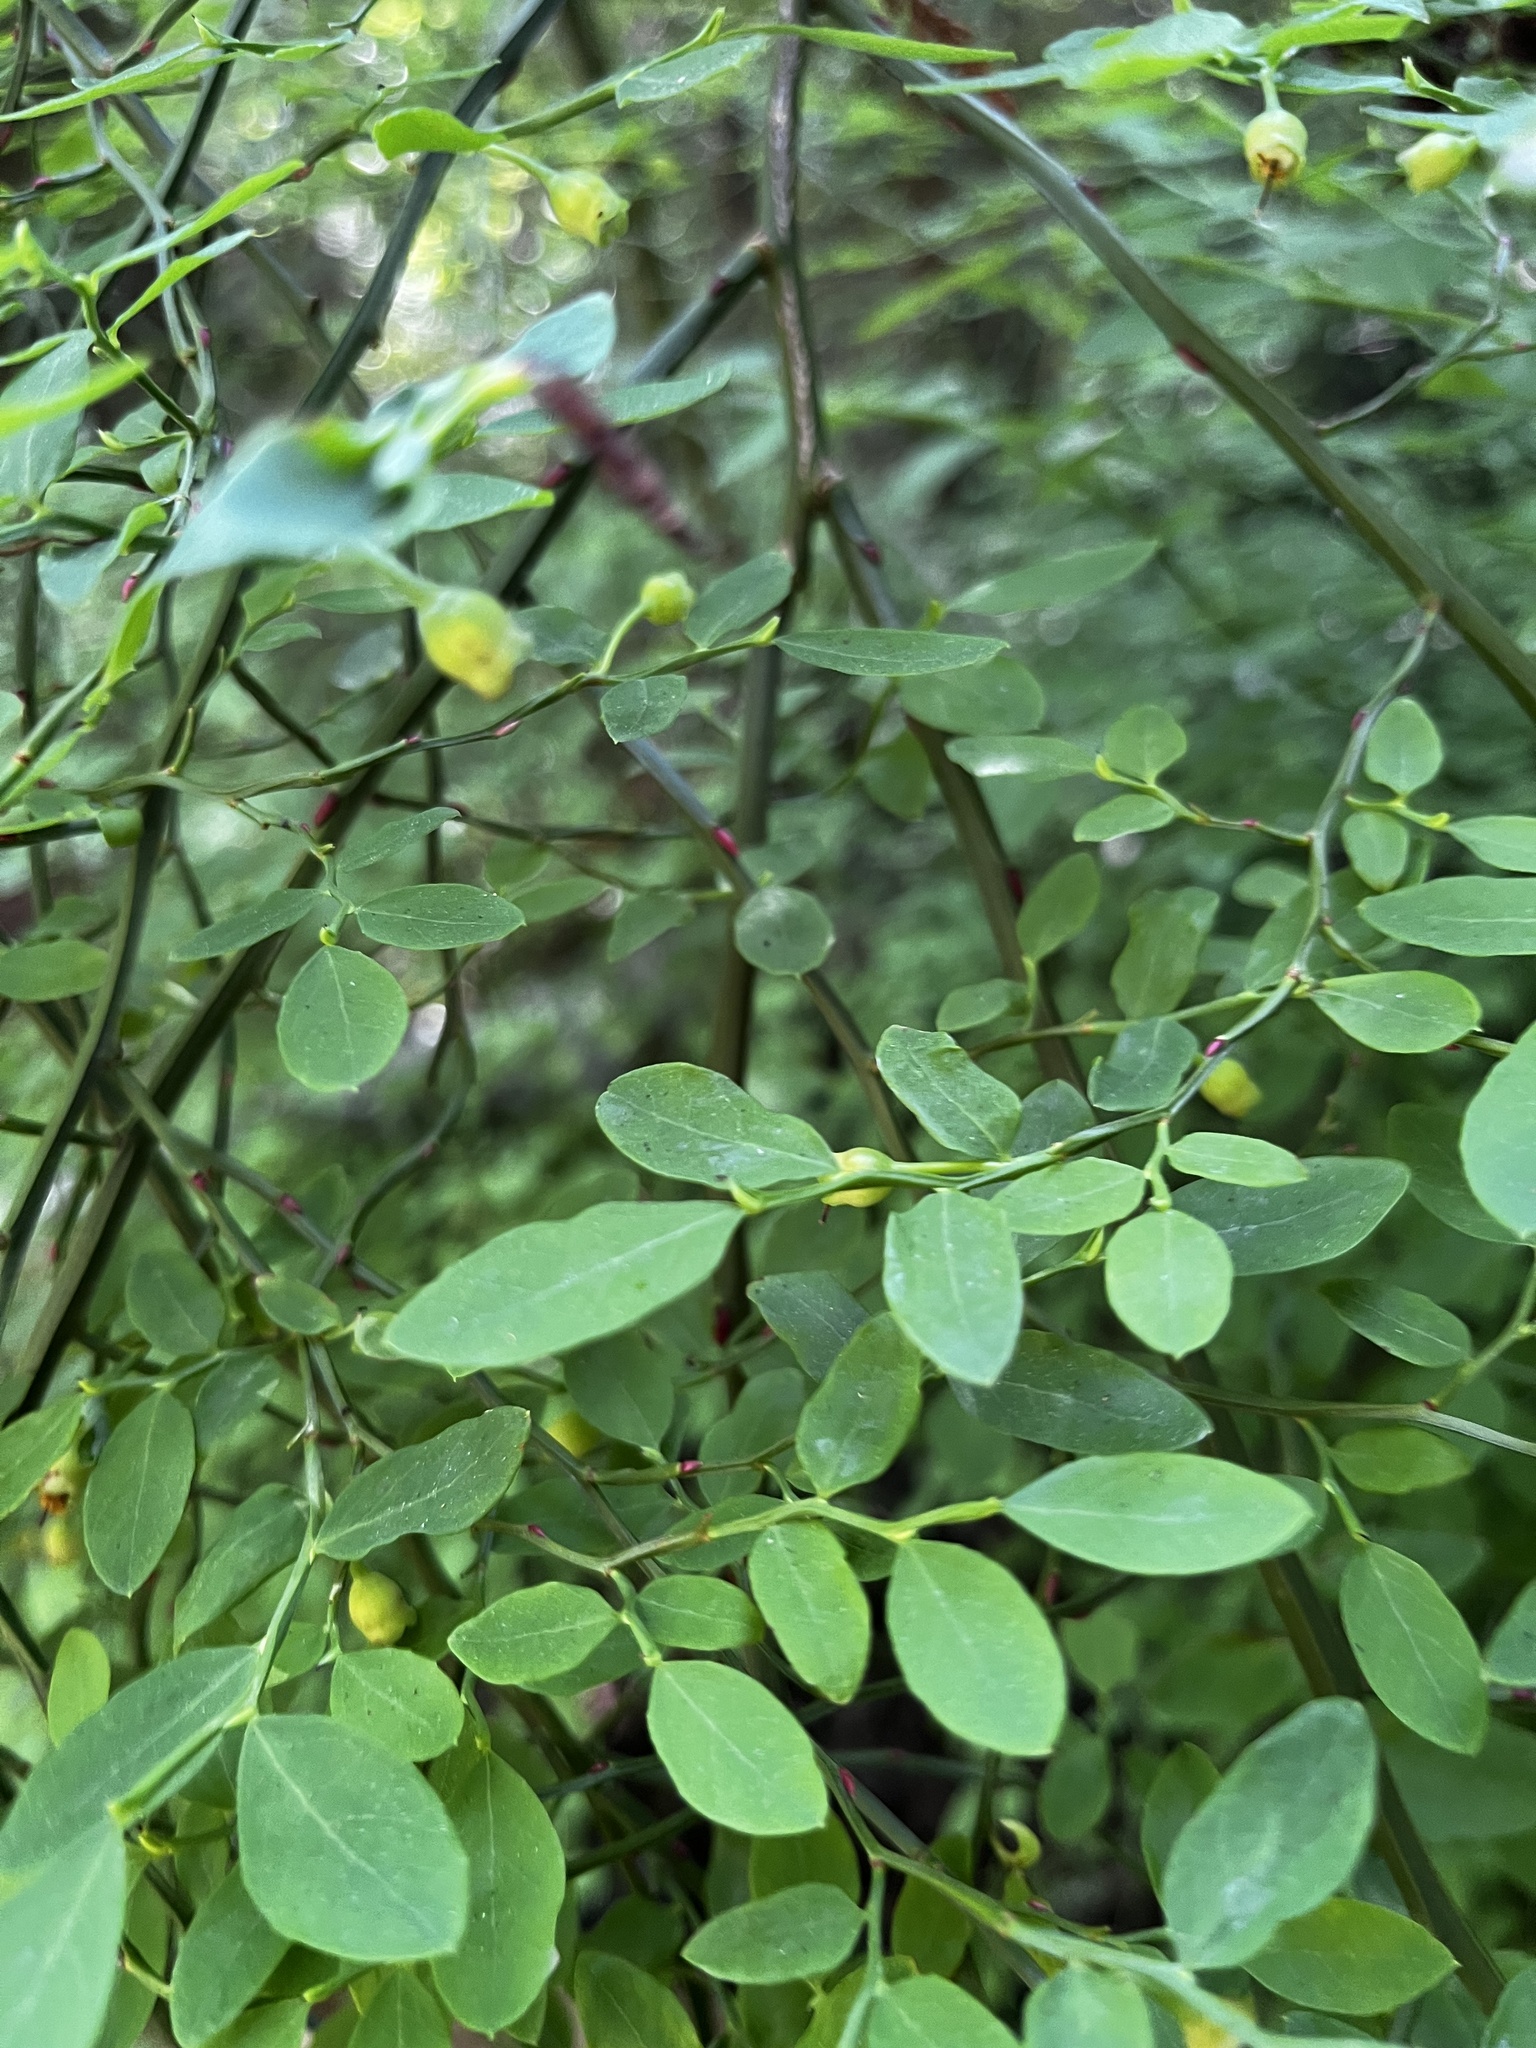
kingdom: Plantae
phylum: Tracheophyta
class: Magnoliopsida
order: Ericales
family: Ericaceae
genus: Vaccinium
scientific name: Vaccinium parvifolium
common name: Red-huckleberry
